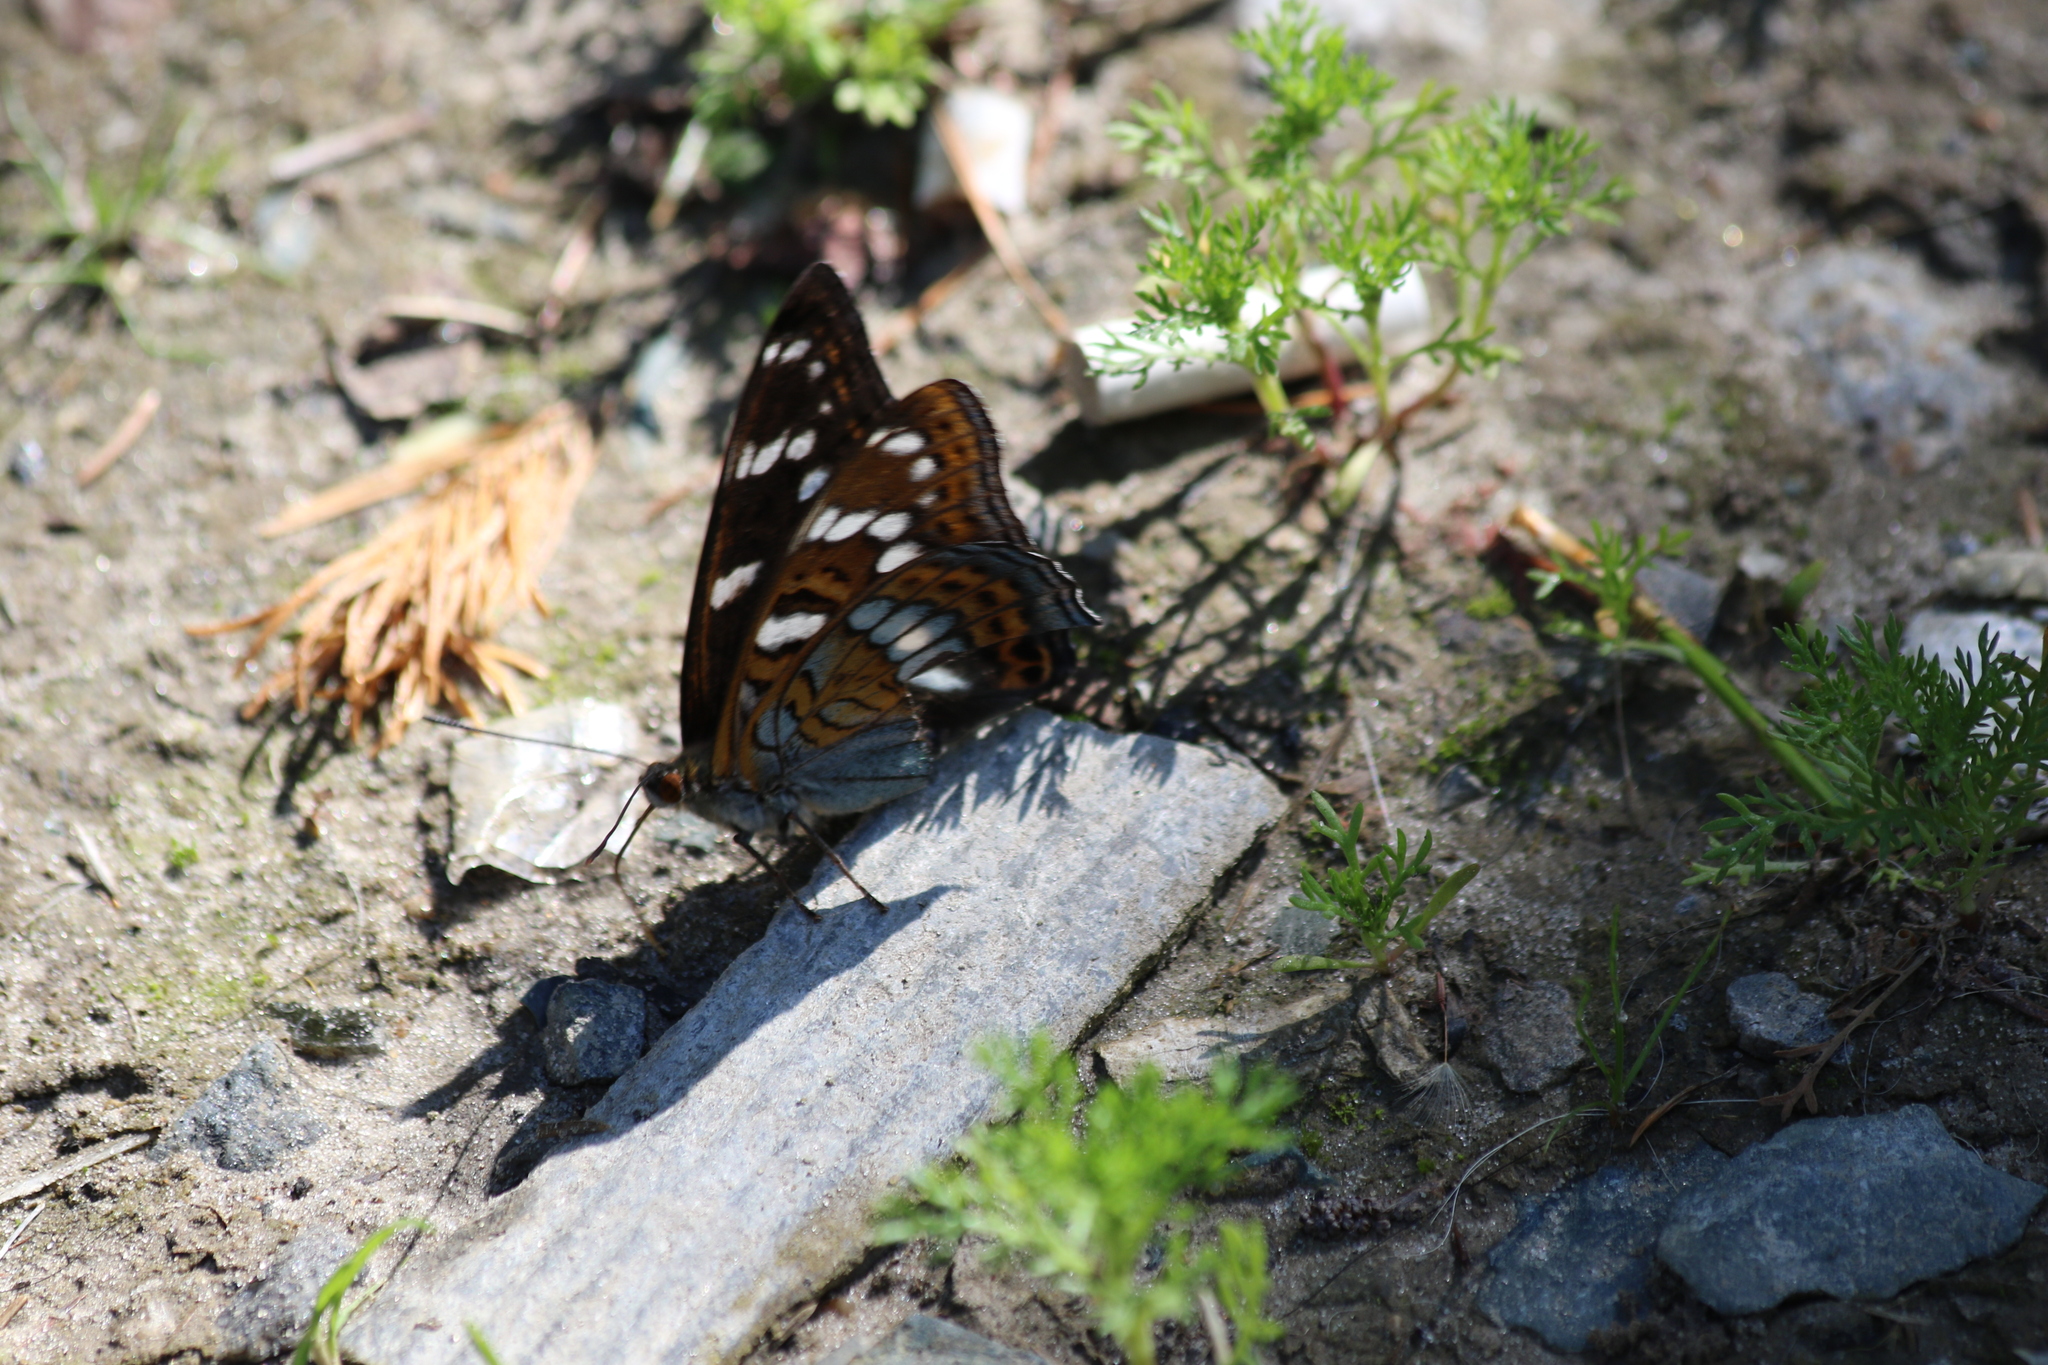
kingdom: Animalia
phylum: Arthropoda
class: Insecta
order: Lepidoptera
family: Nymphalidae
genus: Limenitis
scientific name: Limenitis populi
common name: Poplar admiral
